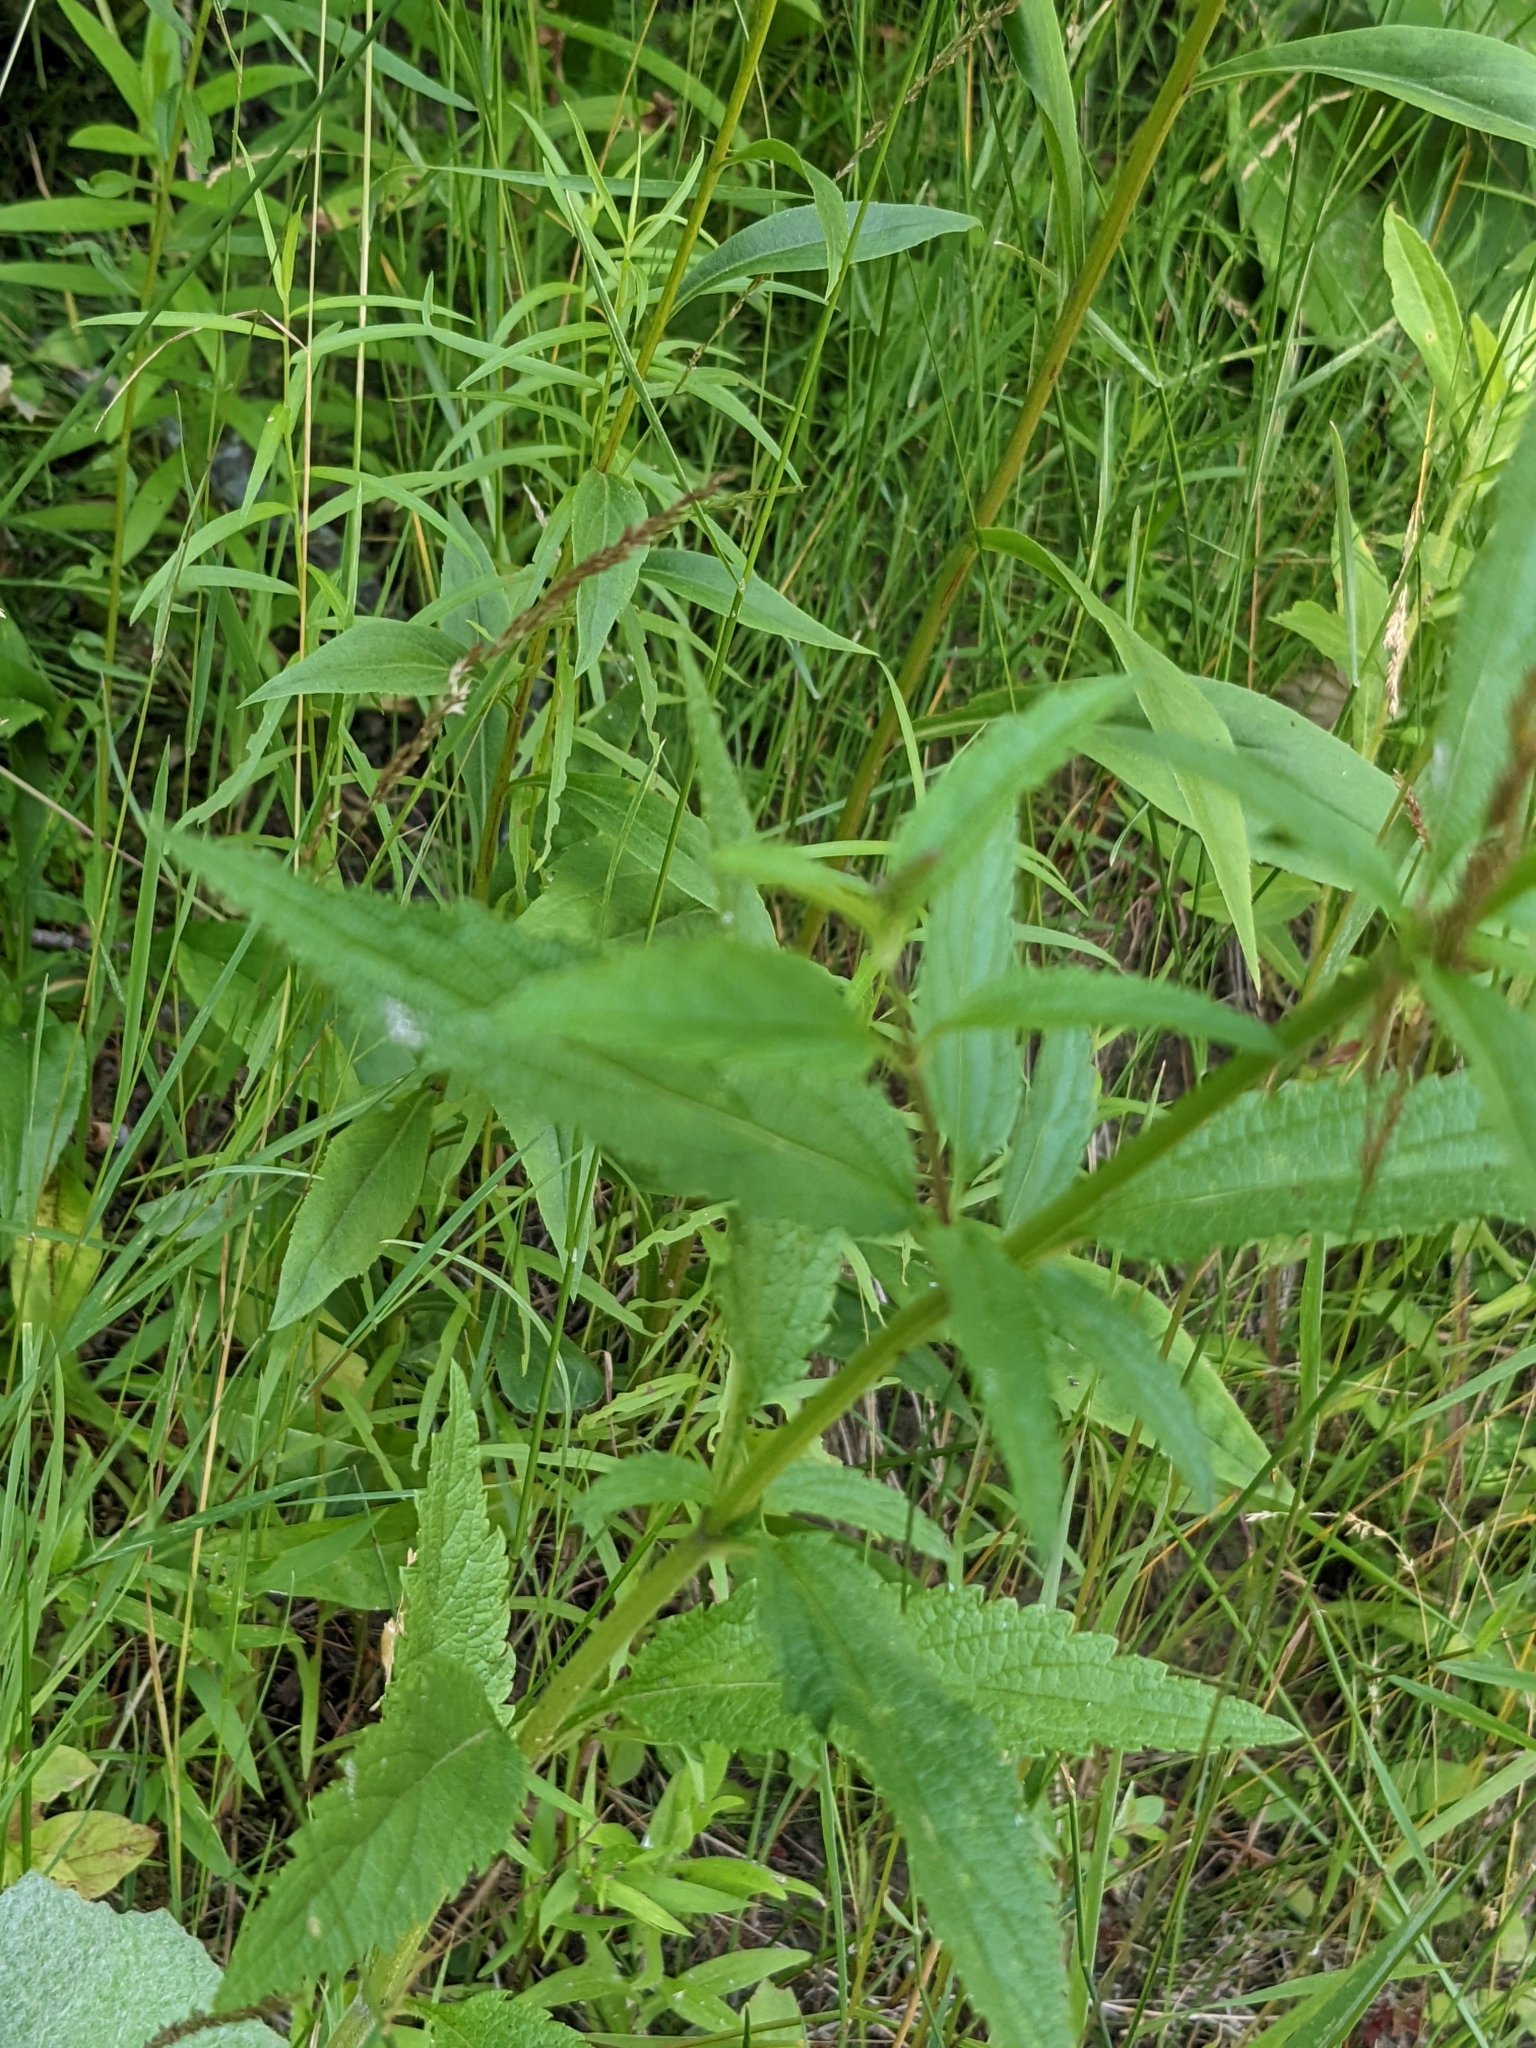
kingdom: Plantae
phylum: Tracheophyta
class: Magnoliopsida
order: Lamiales
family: Verbenaceae
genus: Verbena
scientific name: Verbena hastata
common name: American blue vervain
